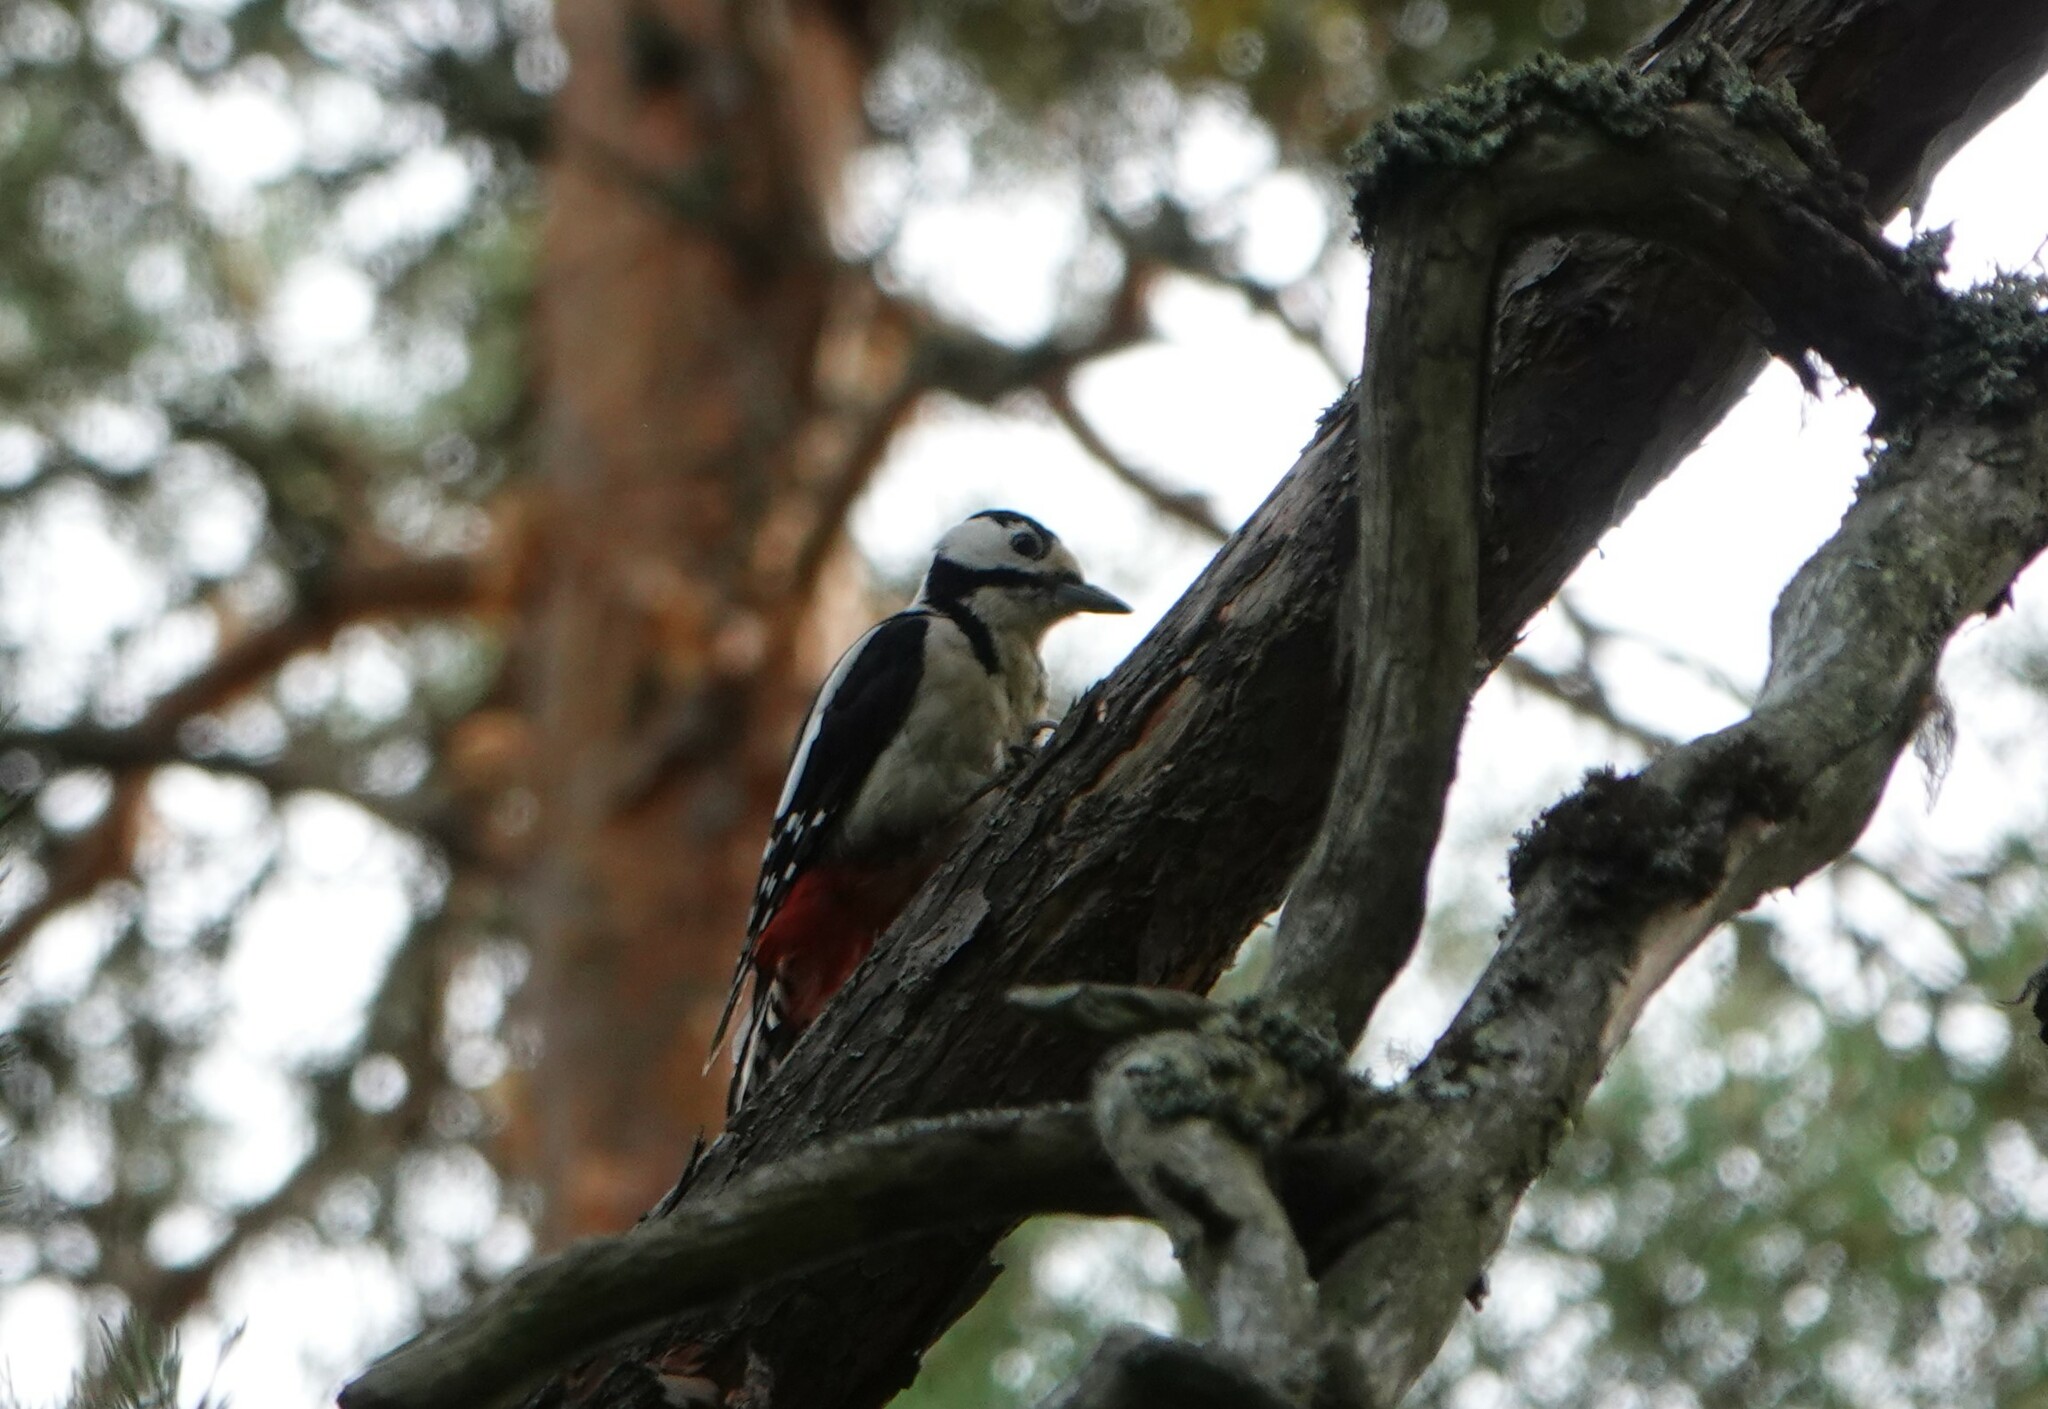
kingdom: Animalia
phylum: Chordata
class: Aves
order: Piciformes
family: Picidae
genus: Dendrocopos
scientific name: Dendrocopos major
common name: Great spotted woodpecker
